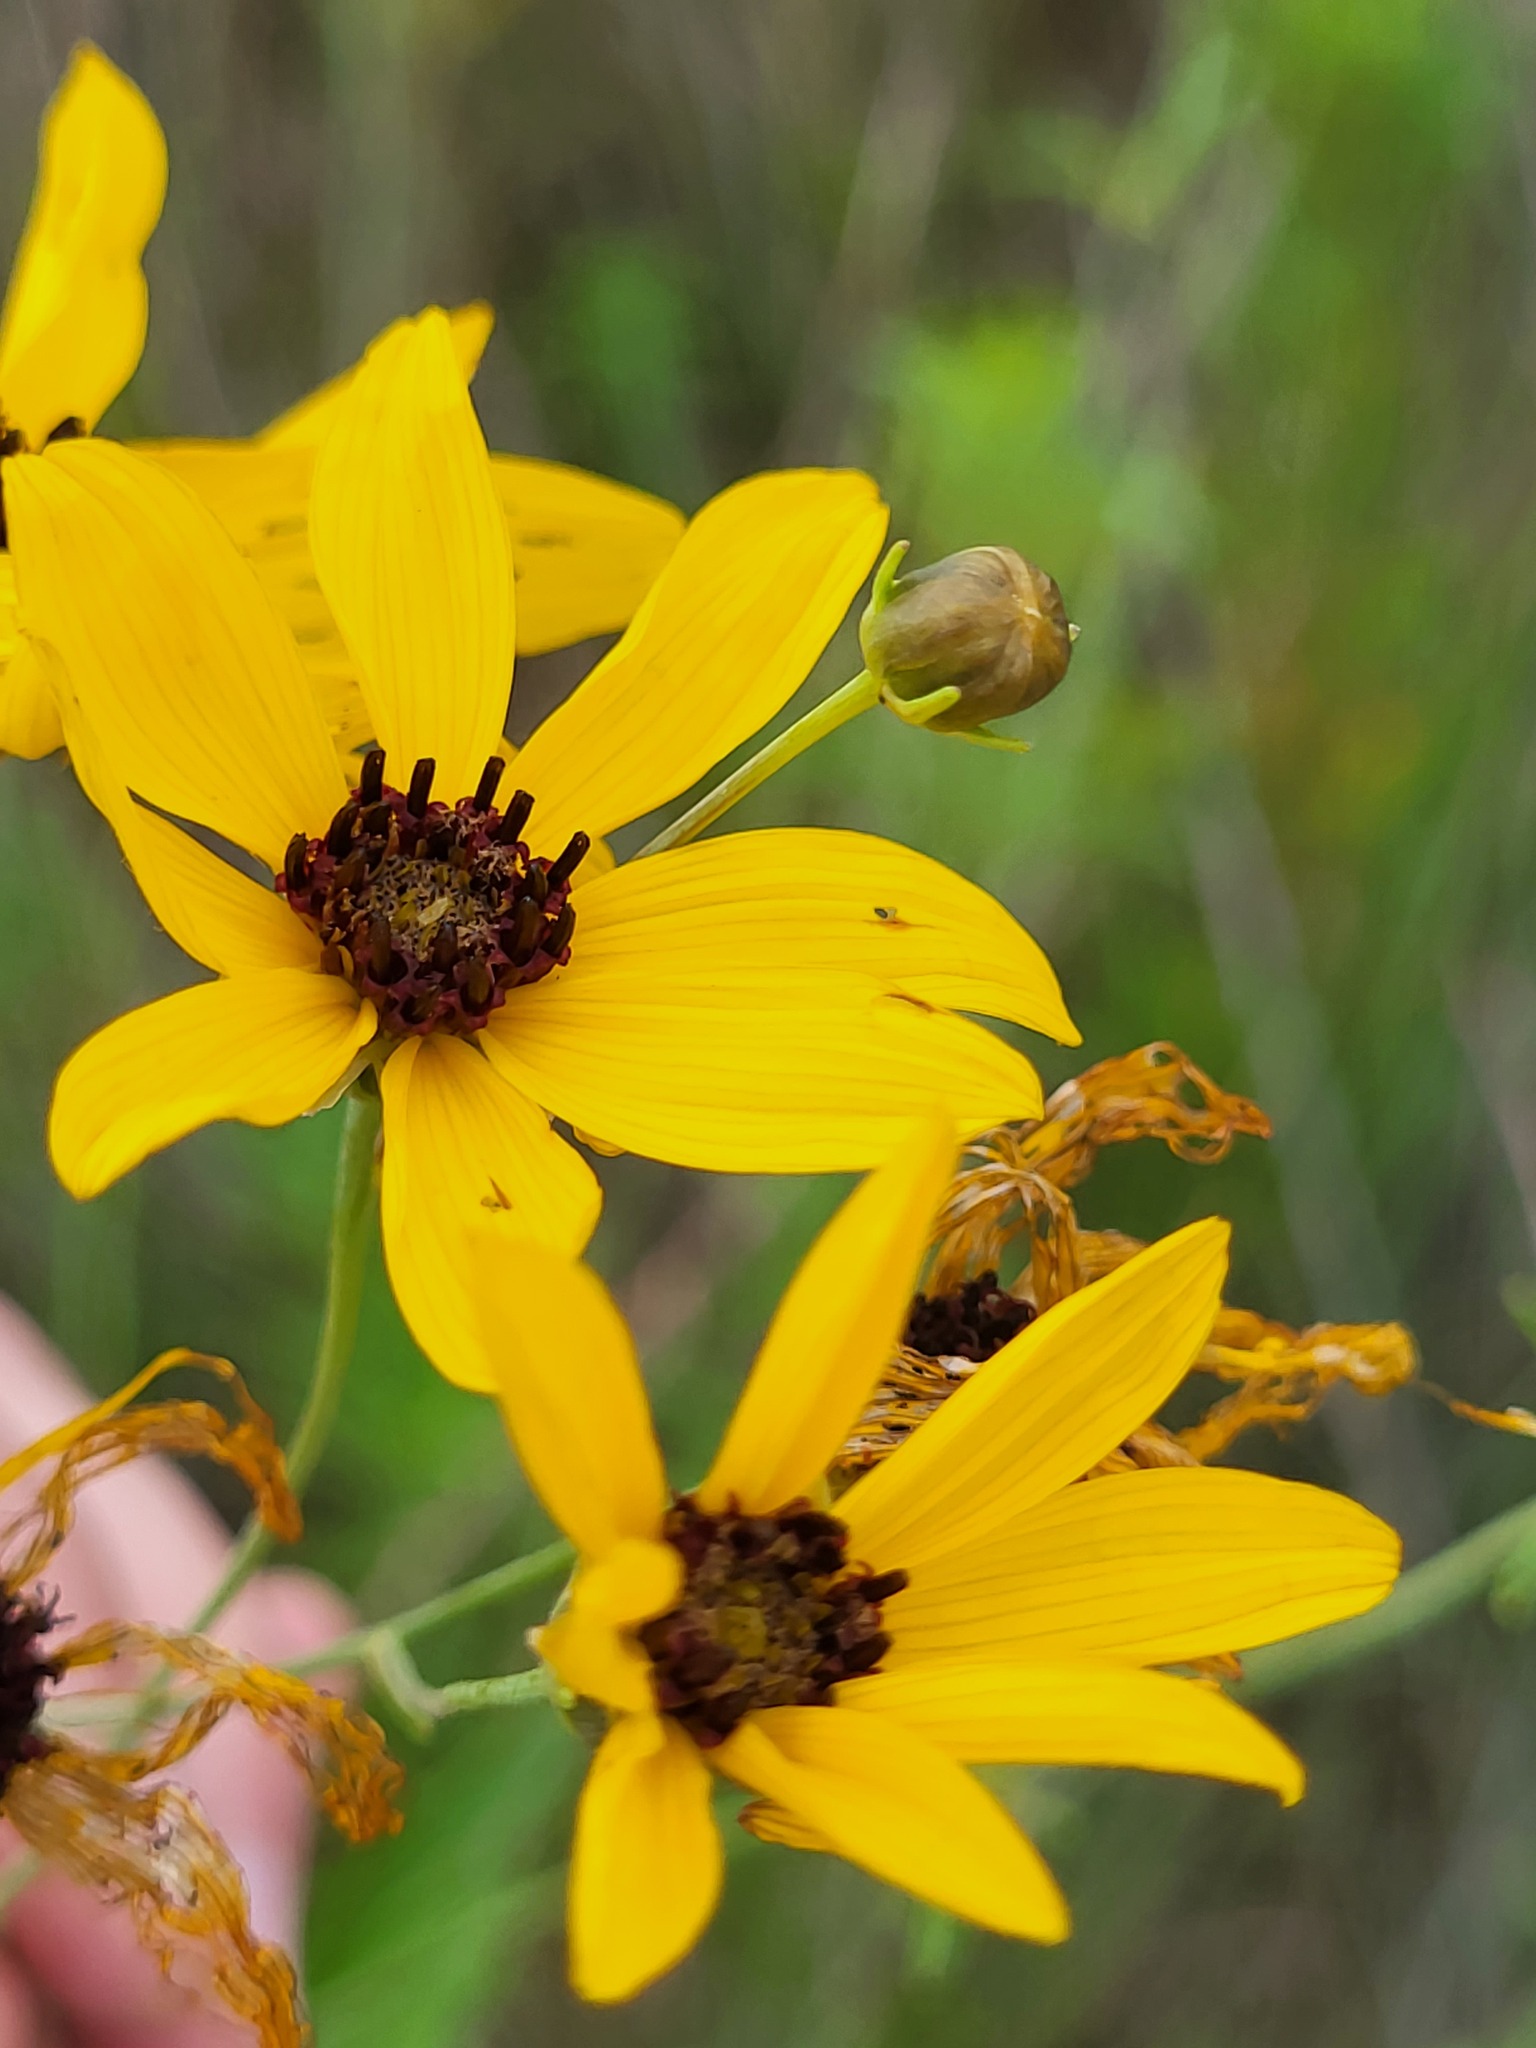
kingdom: Plantae
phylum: Tracheophyta
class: Magnoliopsida
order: Asterales
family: Asteraceae
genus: Coreopsis
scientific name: Coreopsis tripteris
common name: Tall coreopsis
